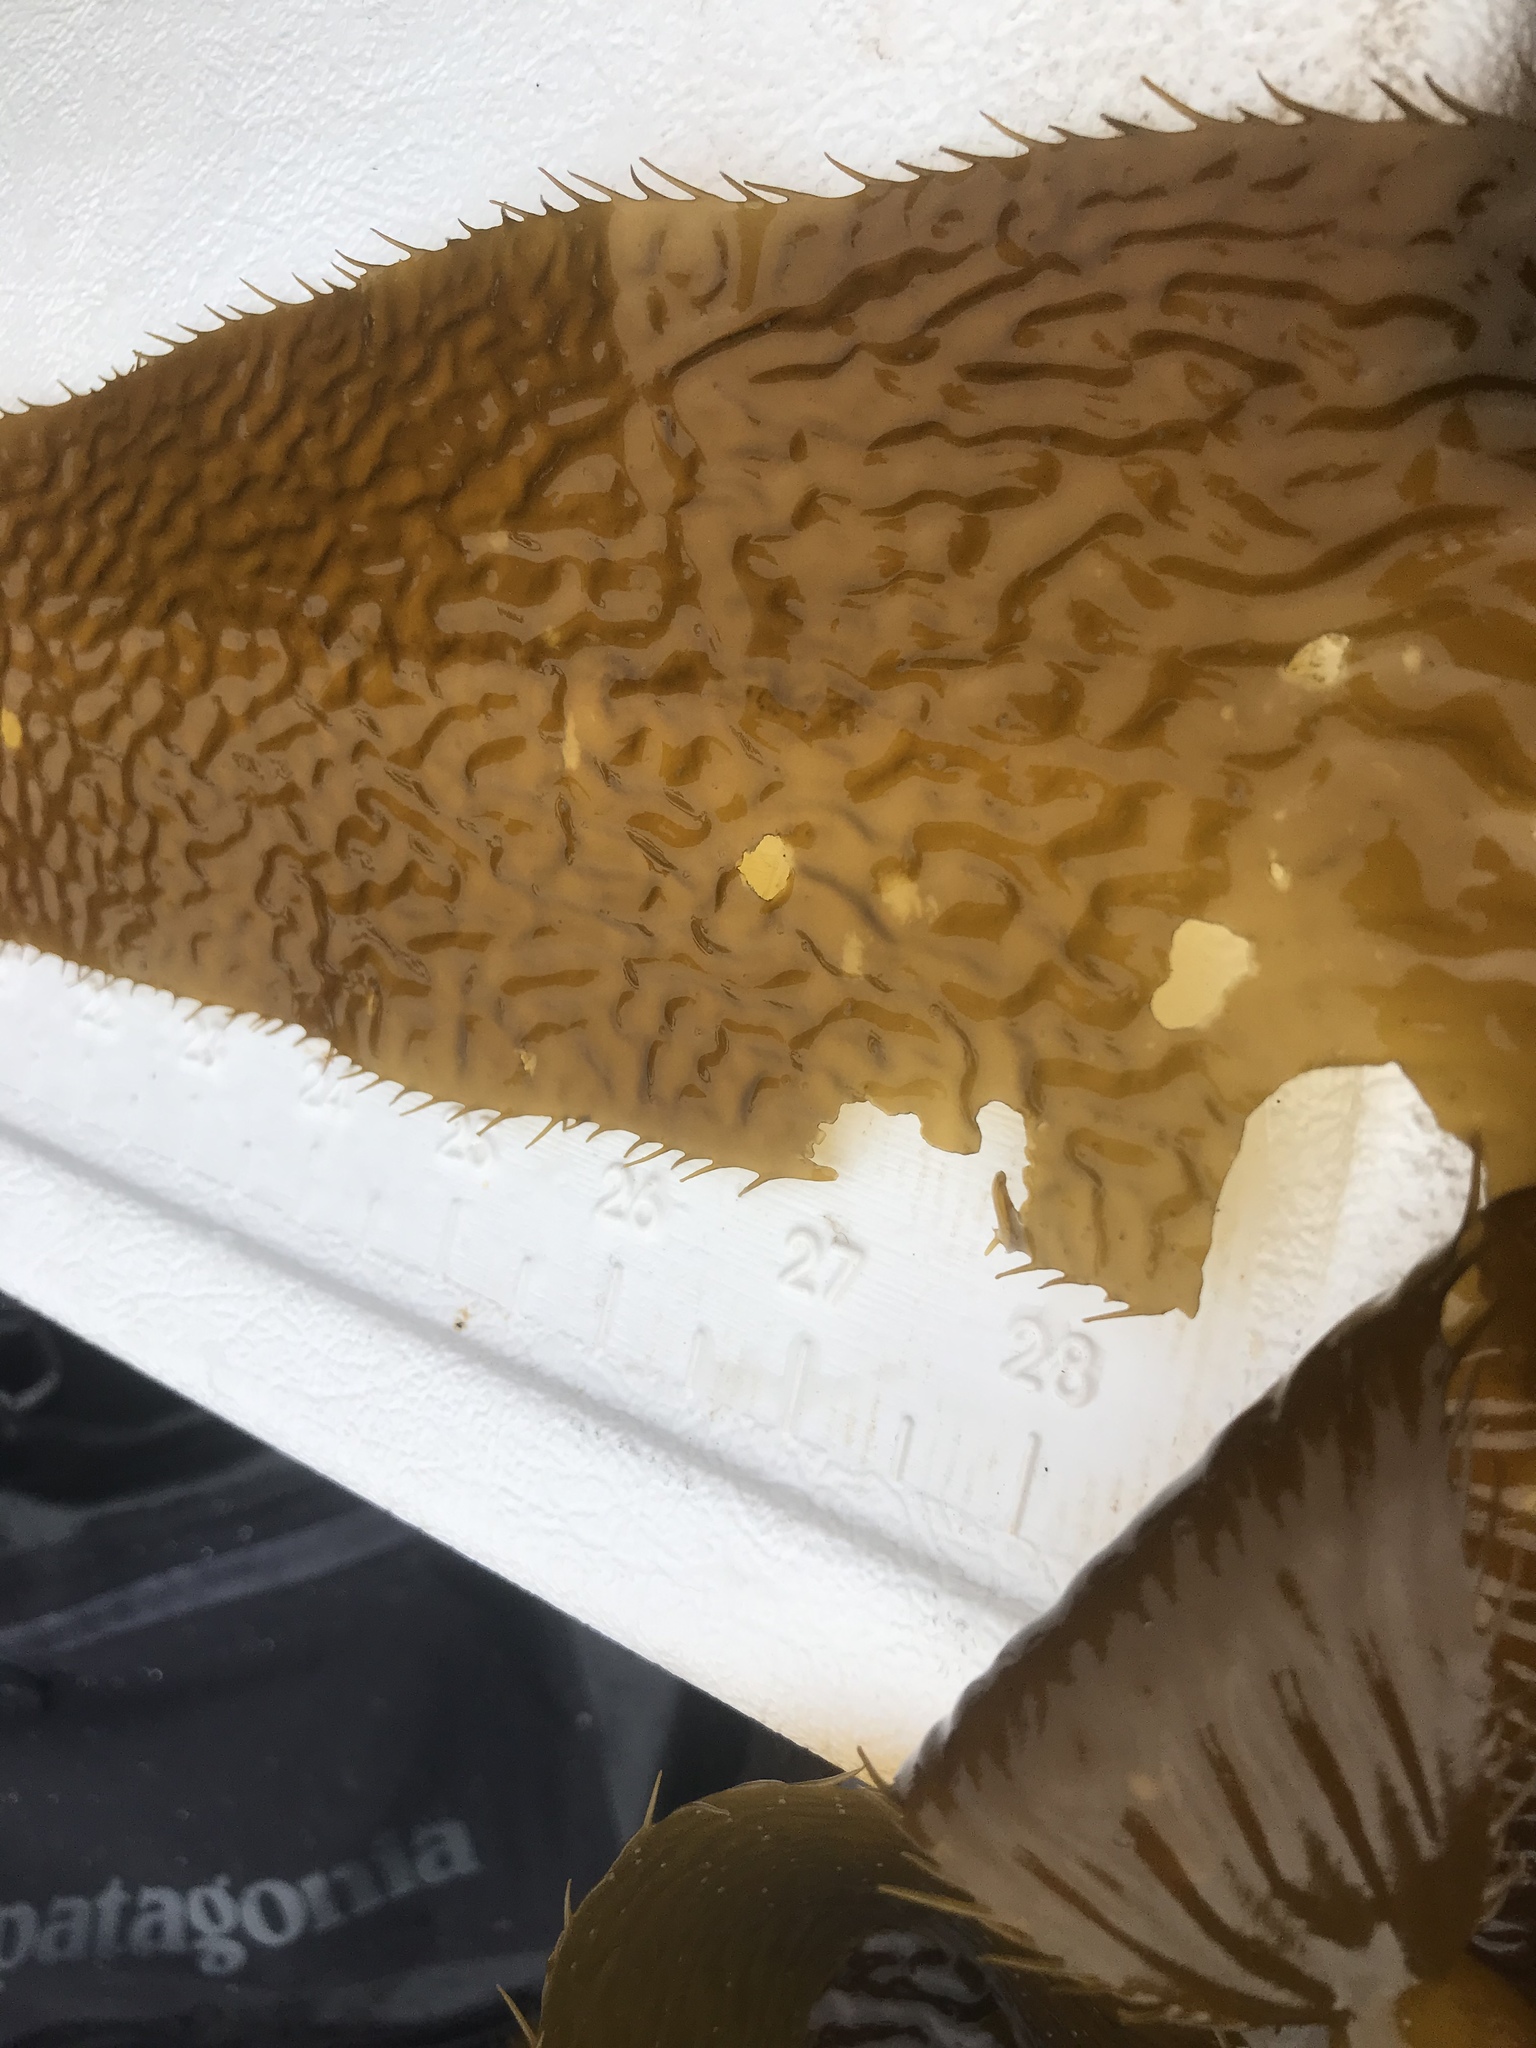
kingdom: Chromista
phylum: Ochrophyta
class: Phaeophyceae
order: Laminariales
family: Laminariaceae
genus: Macrocystis
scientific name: Macrocystis pyrifera
